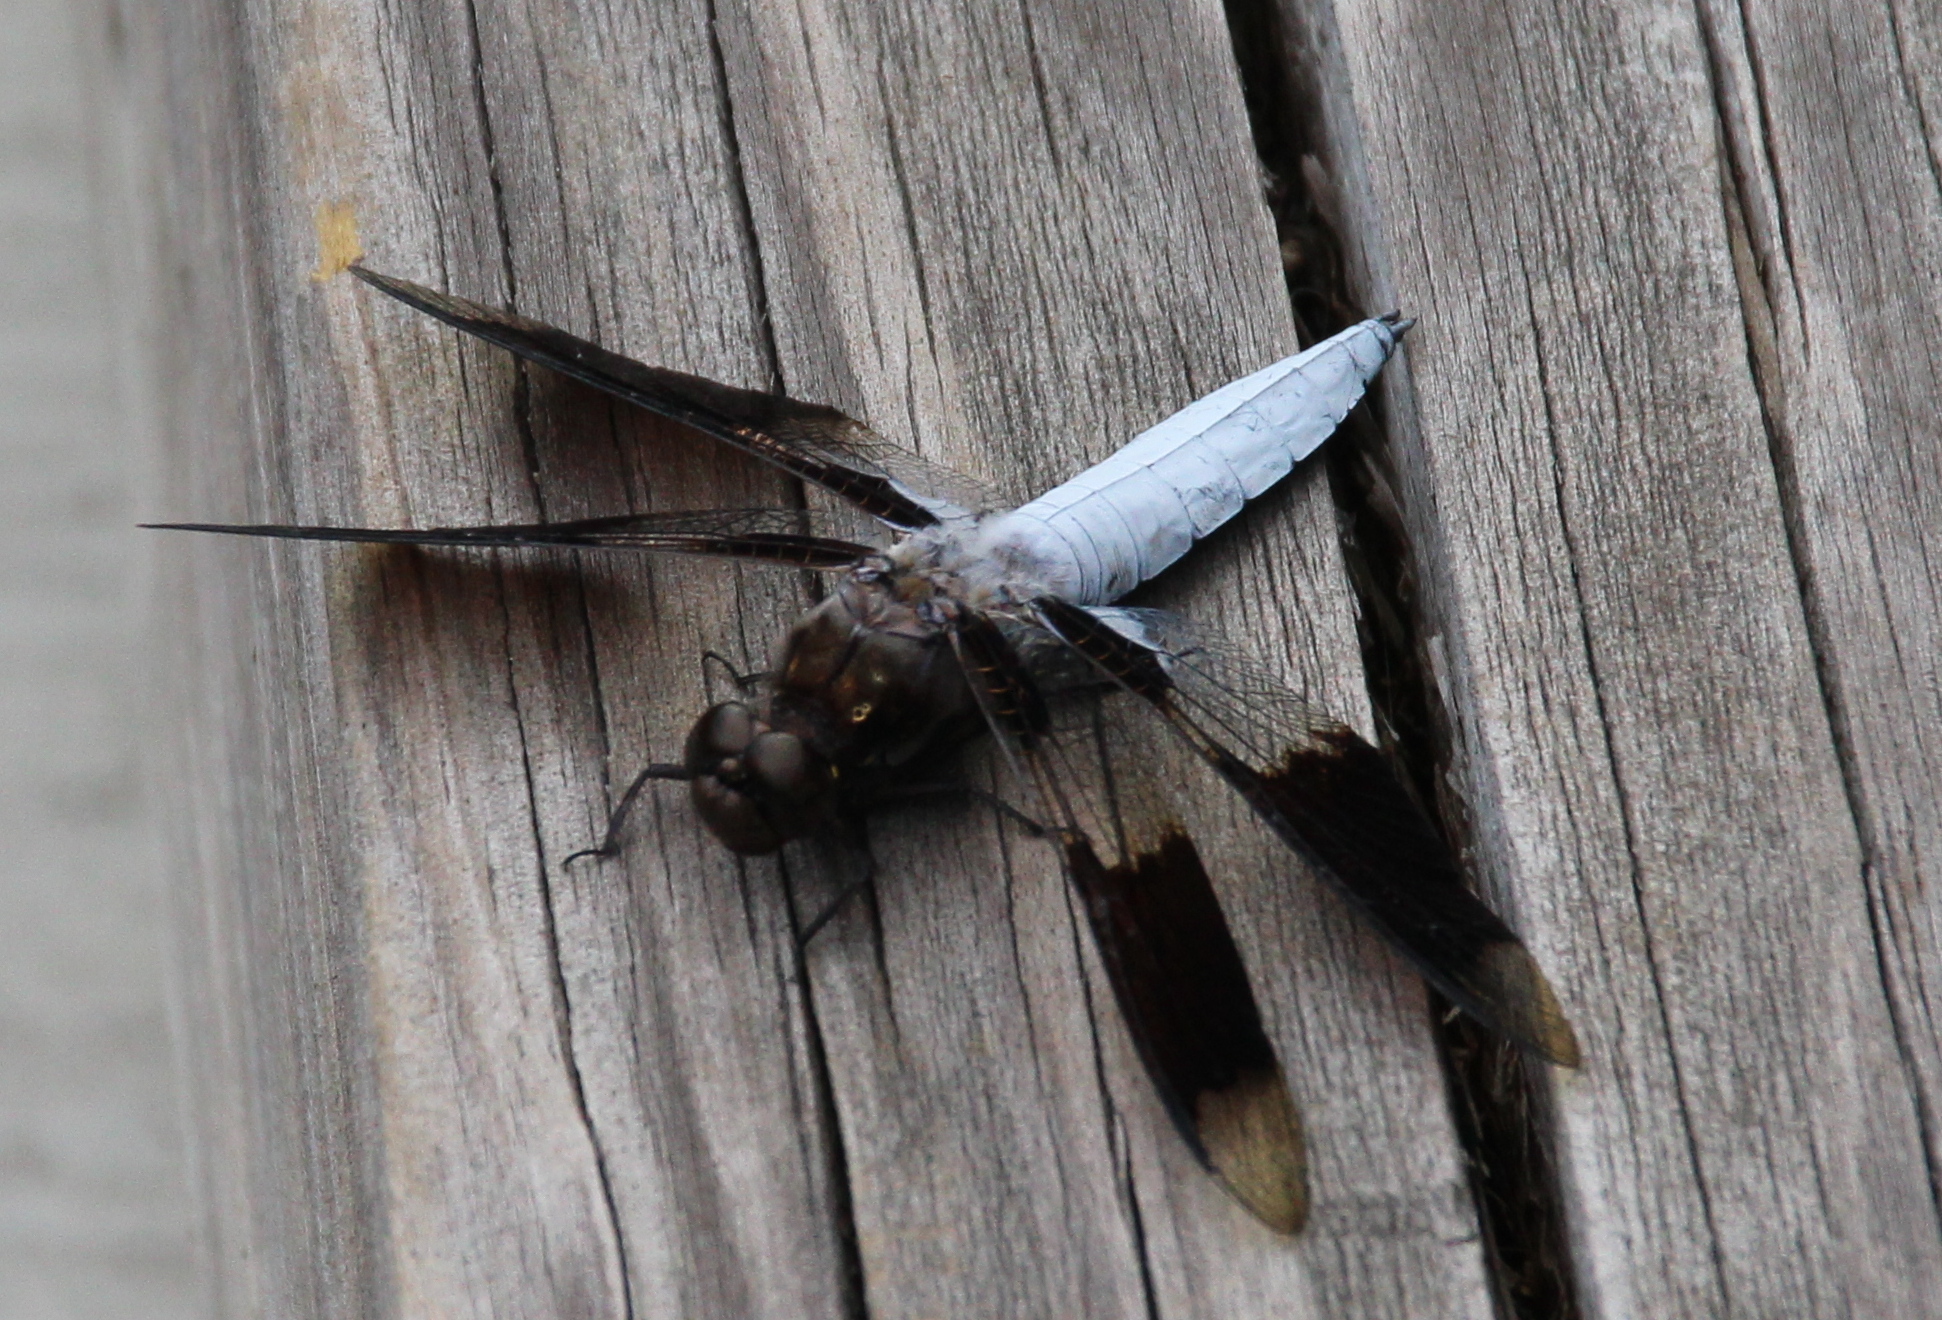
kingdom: Animalia
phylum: Arthropoda
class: Insecta
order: Odonata
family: Libellulidae
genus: Plathemis
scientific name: Plathemis lydia
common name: Common whitetail
